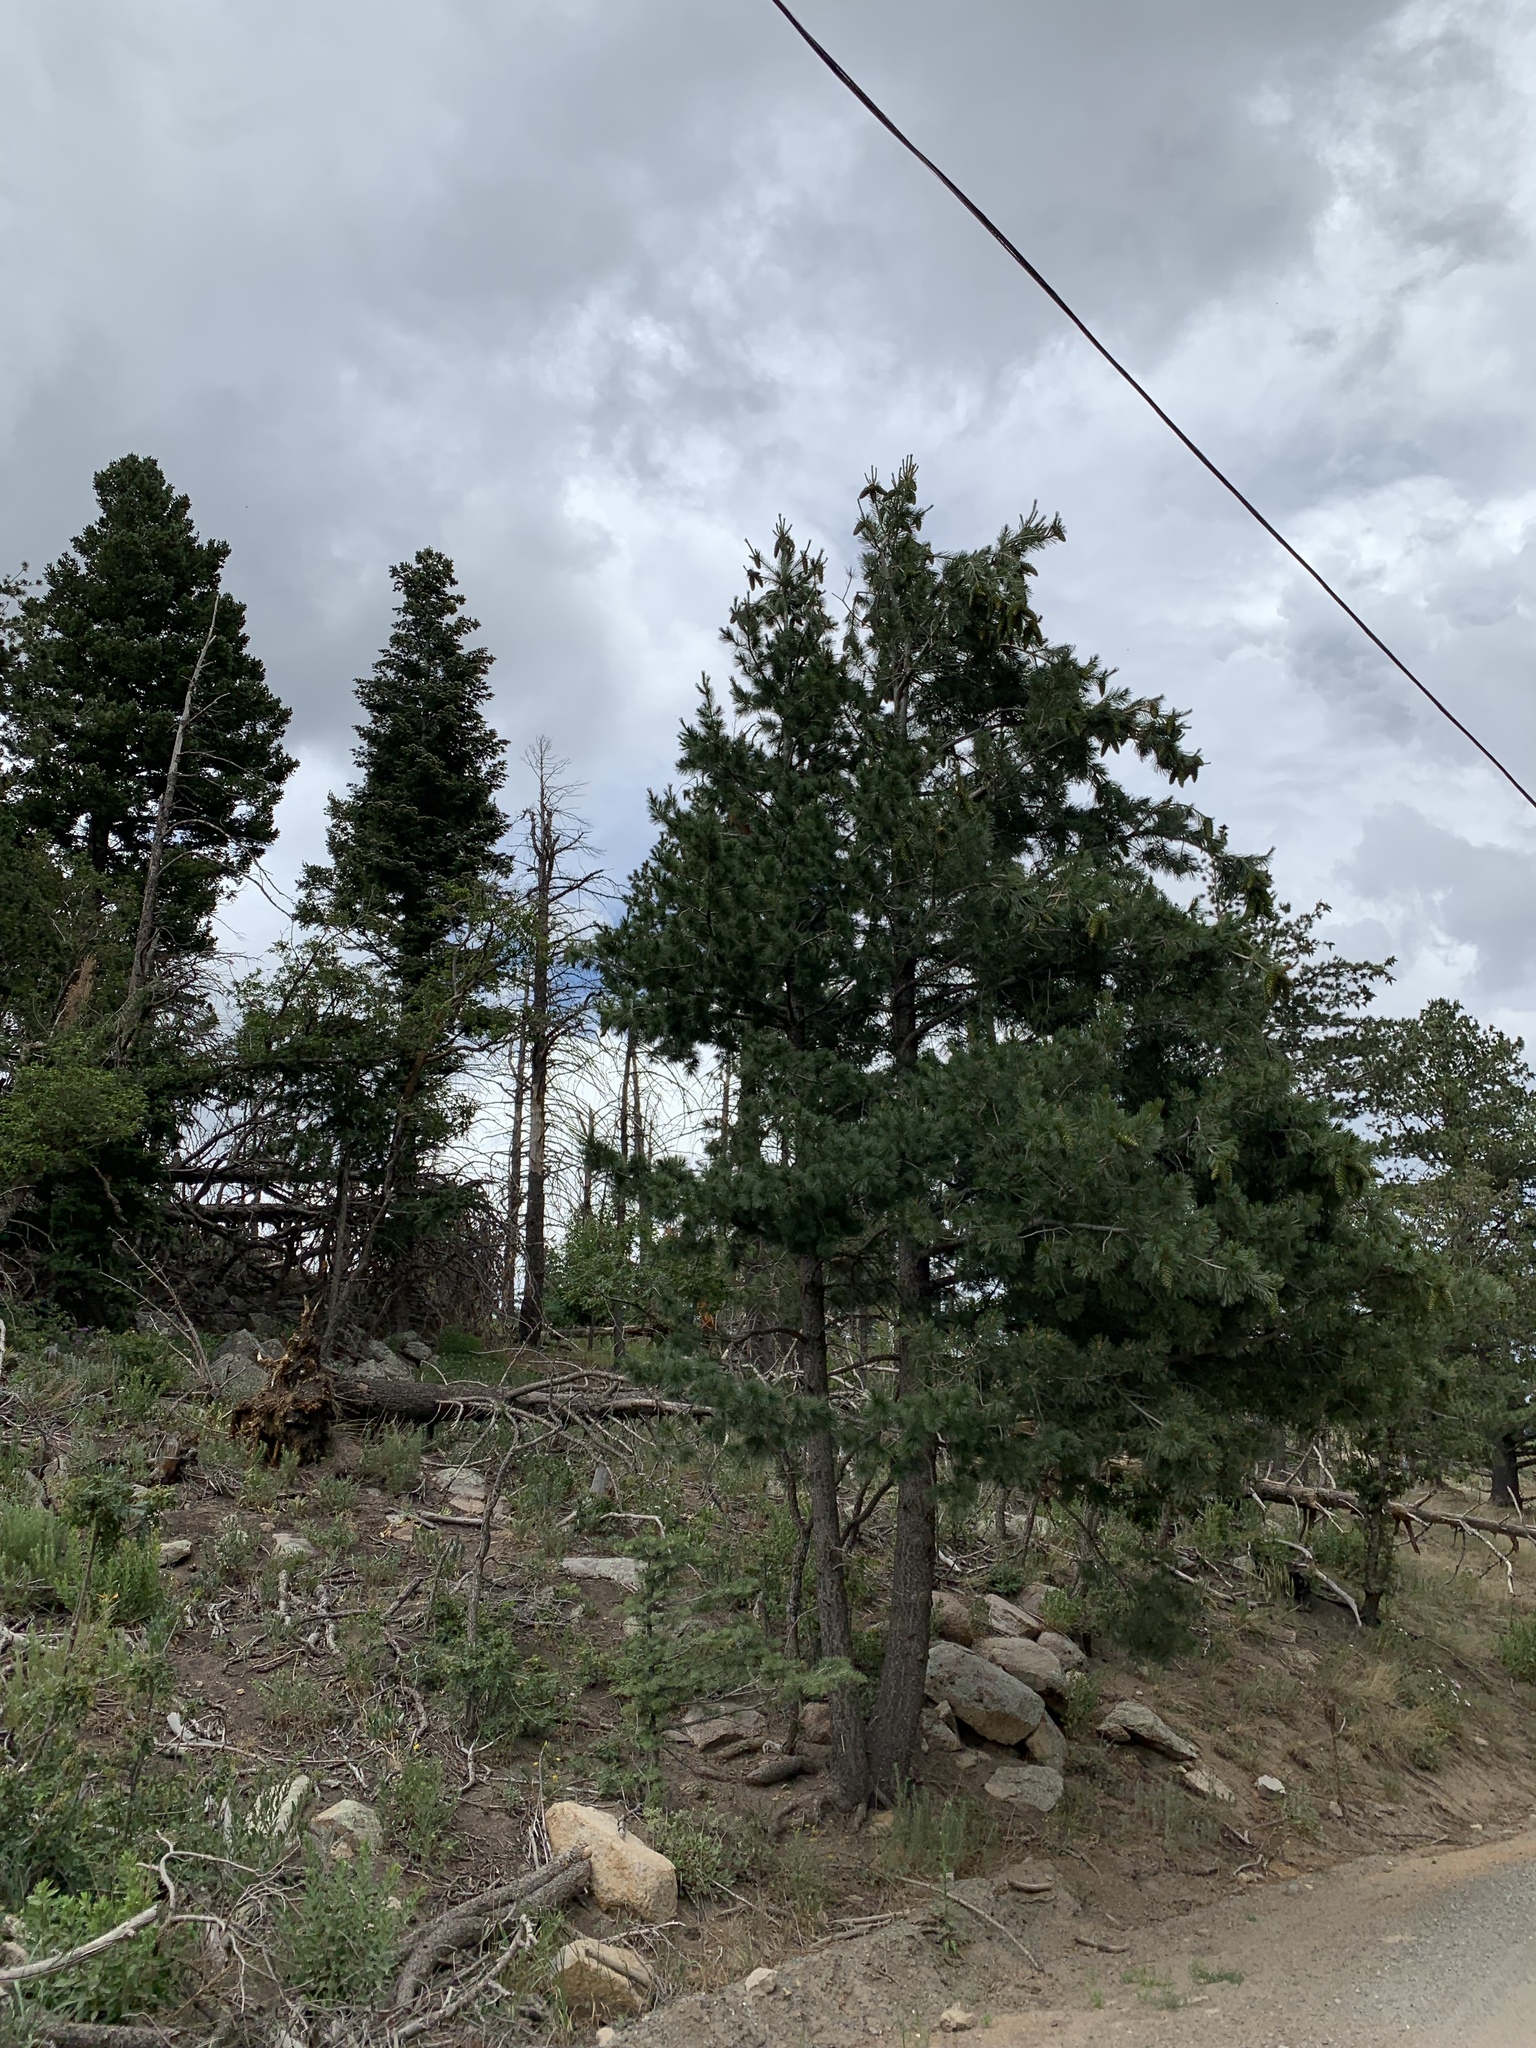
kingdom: Plantae
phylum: Tracheophyta
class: Pinopsida
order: Pinales
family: Pinaceae
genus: Pinus
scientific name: Pinus strobiformis
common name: Southwestern white pine
